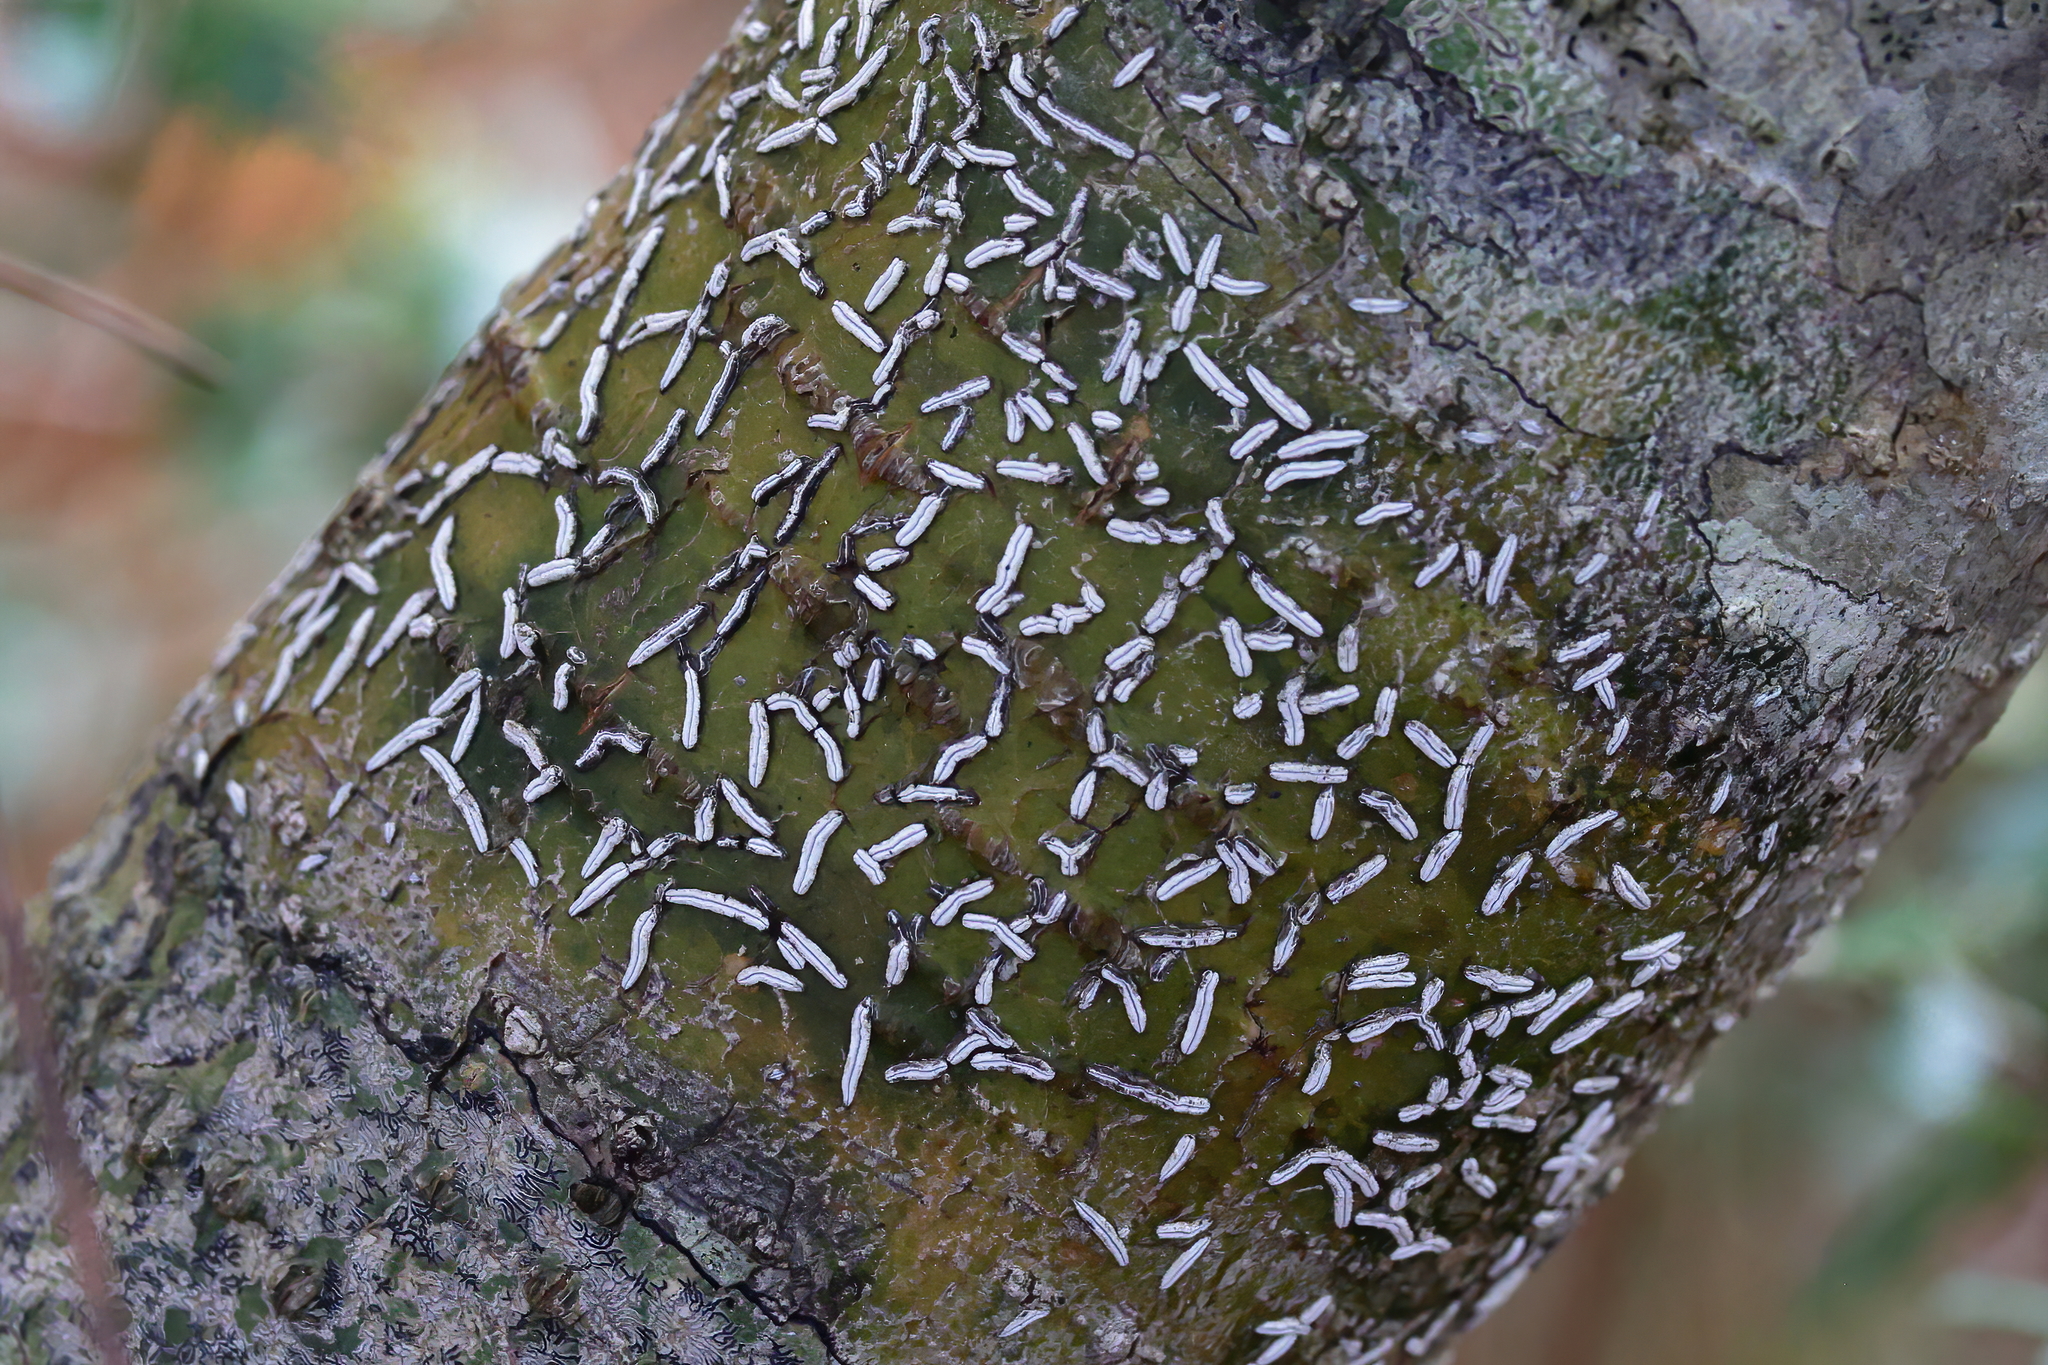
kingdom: Fungi
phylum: Ascomycota
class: Lecanoromycetes
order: Ostropales
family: Graphidaceae
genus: Dyplolabia
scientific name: Dyplolabia afzelii
